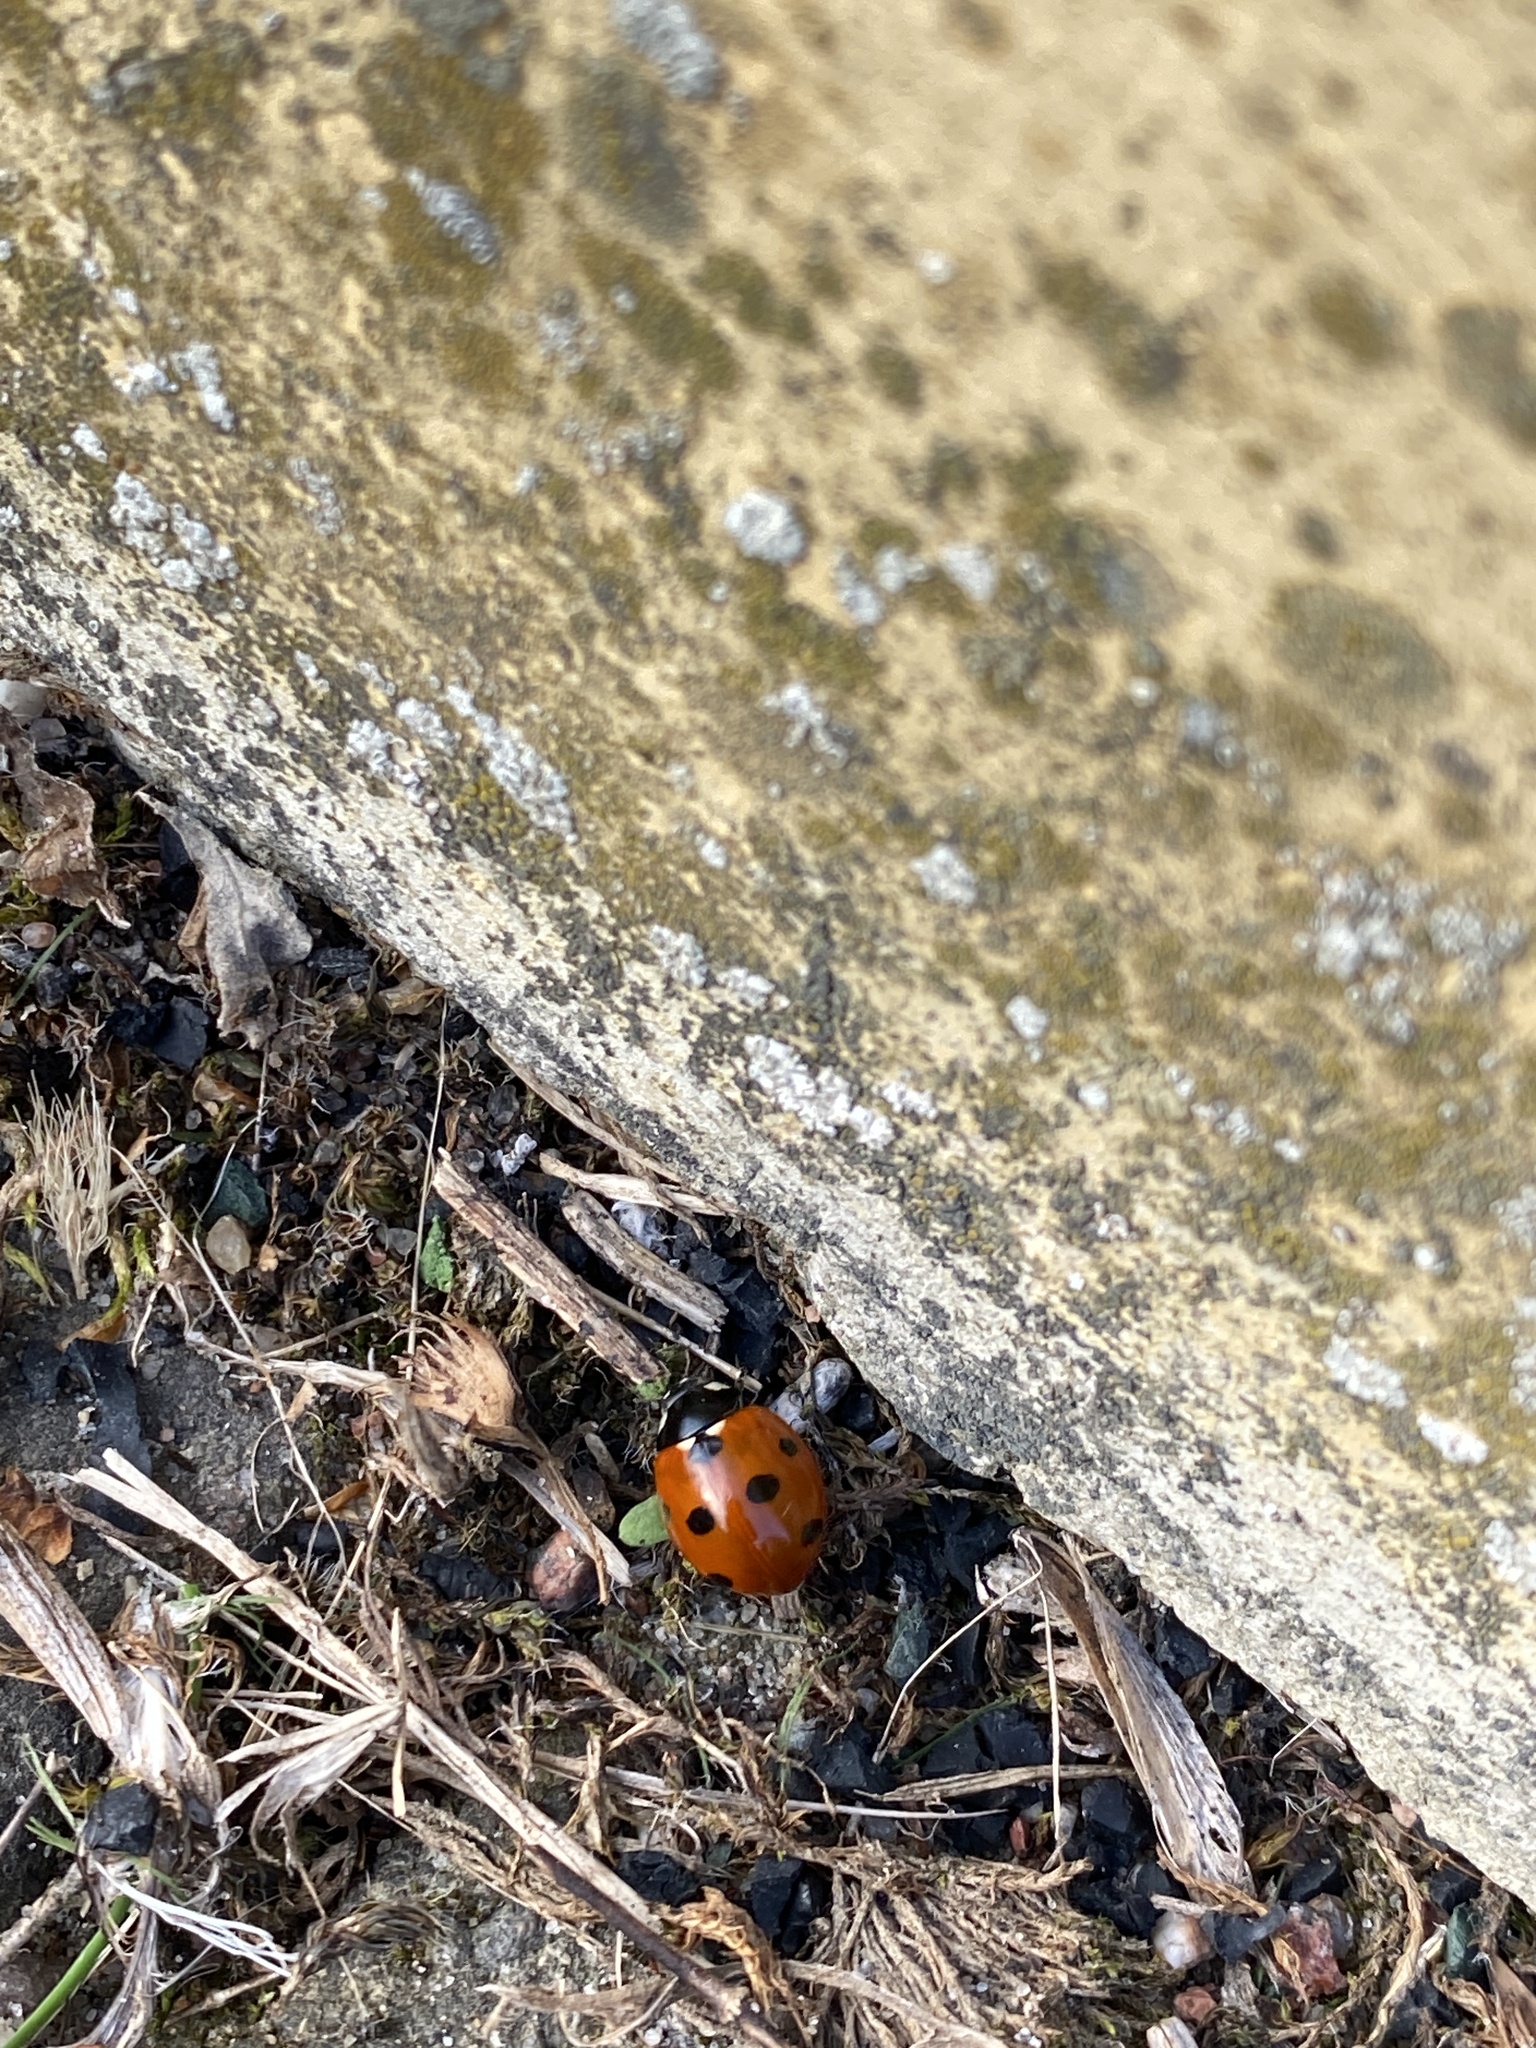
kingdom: Animalia
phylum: Arthropoda
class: Insecta
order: Coleoptera
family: Coccinellidae
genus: Coccinella
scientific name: Coccinella septempunctata
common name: Sevenspotted lady beetle
